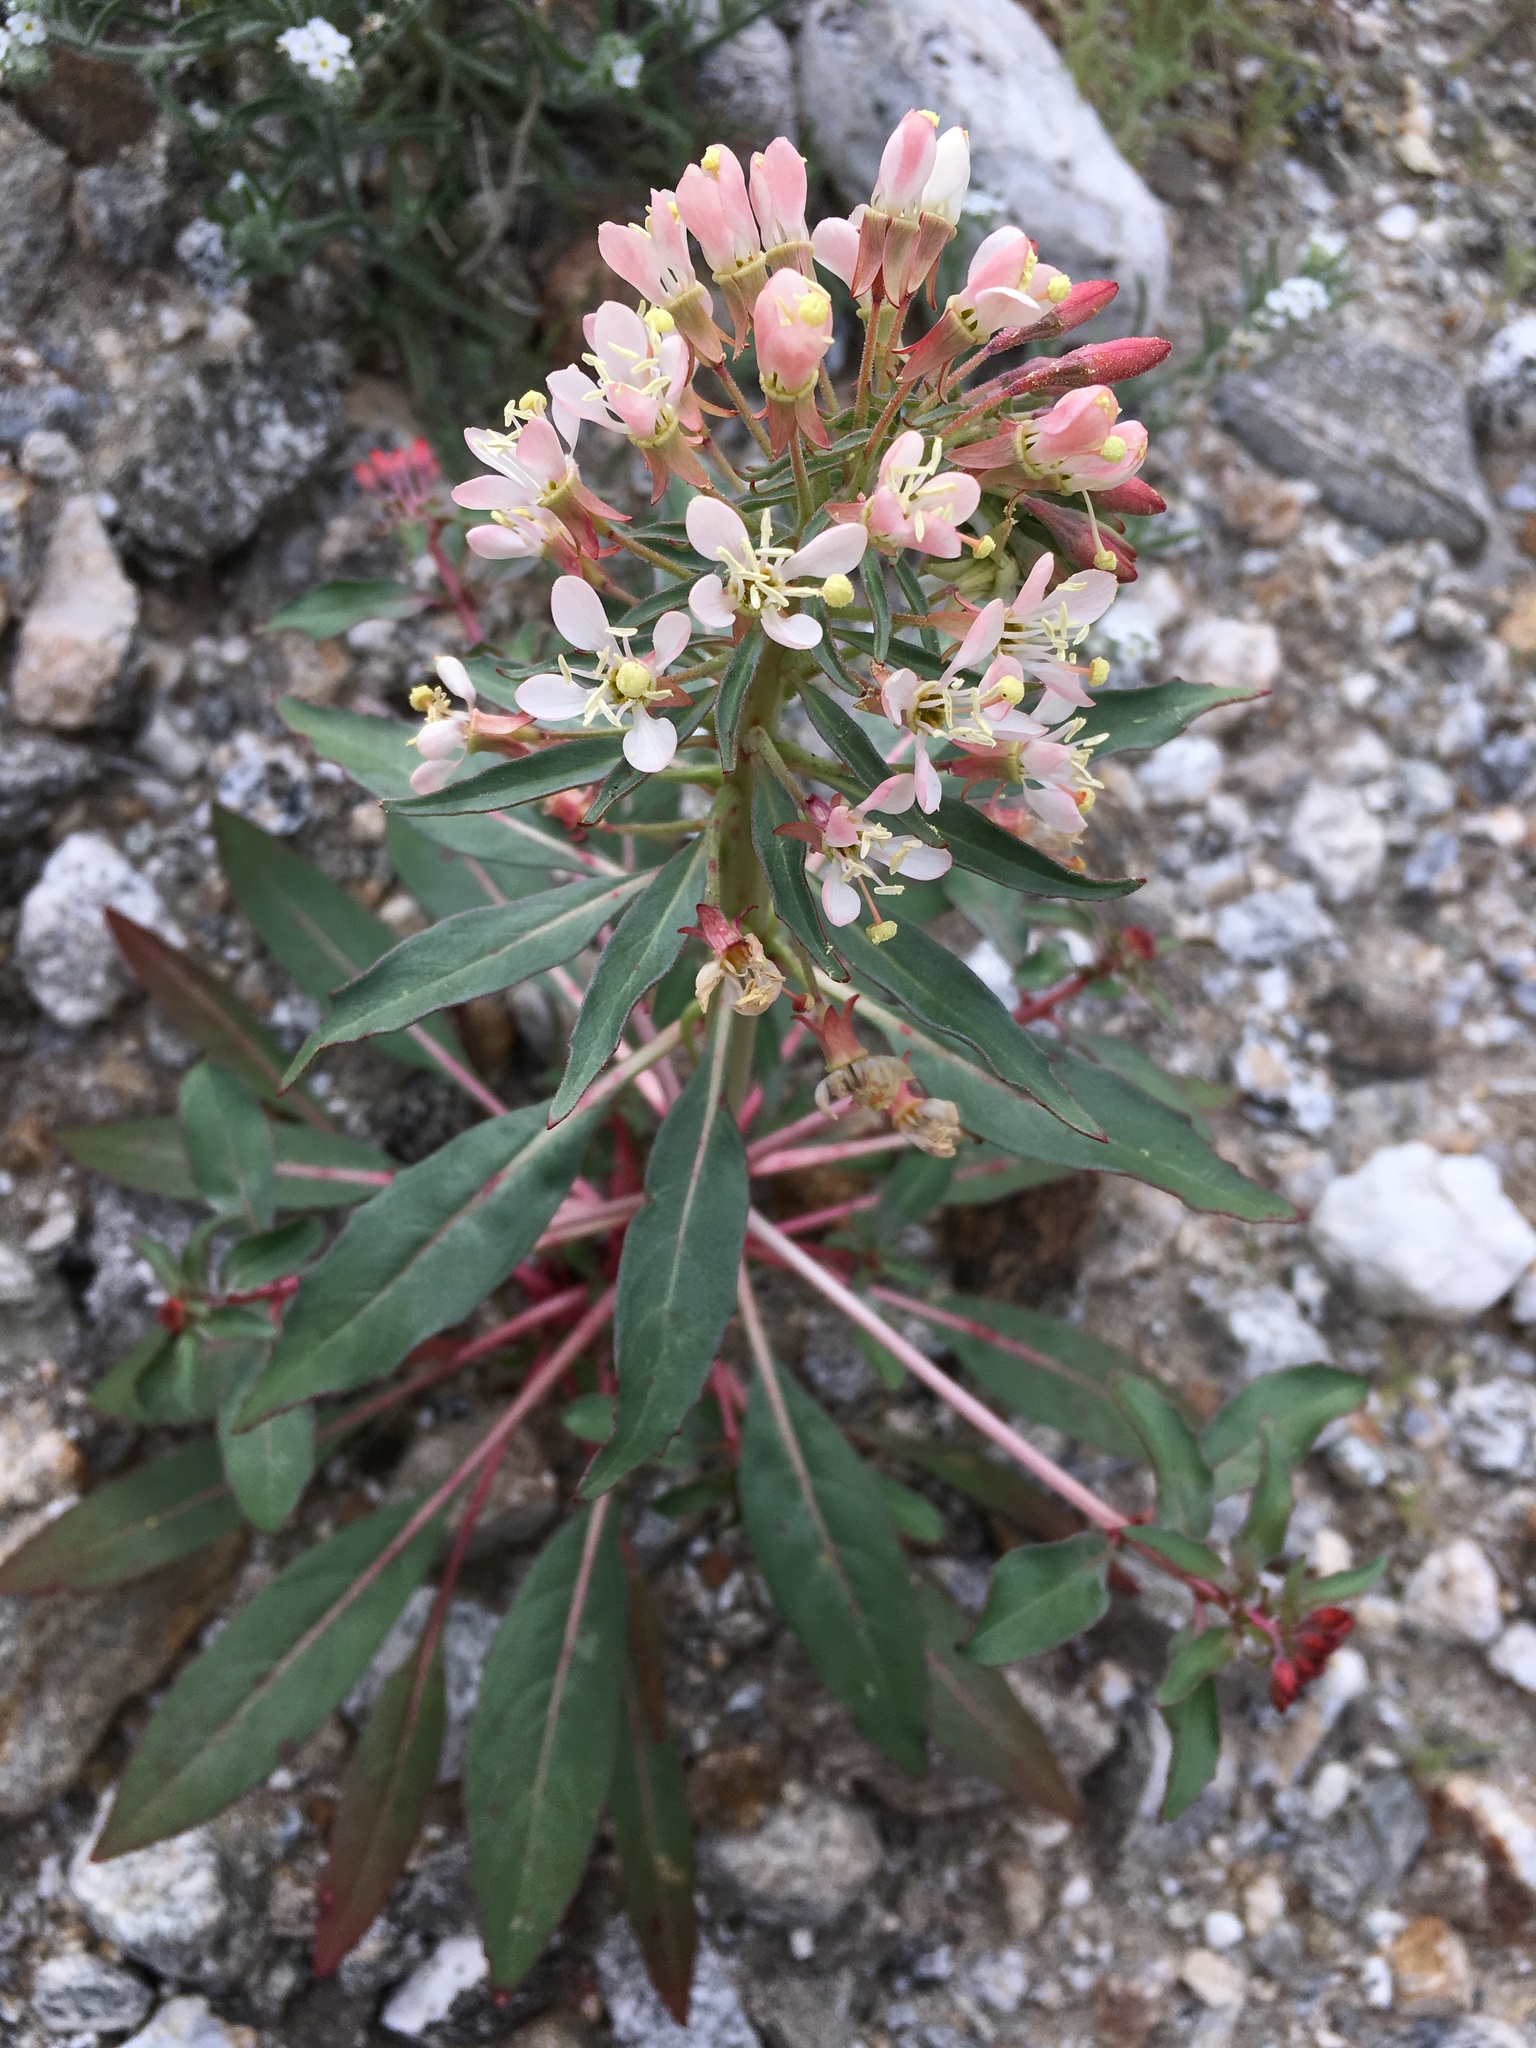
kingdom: Plantae
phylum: Tracheophyta
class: Magnoliopsida
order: Myrtales
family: Onagraceae
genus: Eremothera
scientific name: Eremothera boothii
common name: Booth's evening primrose
